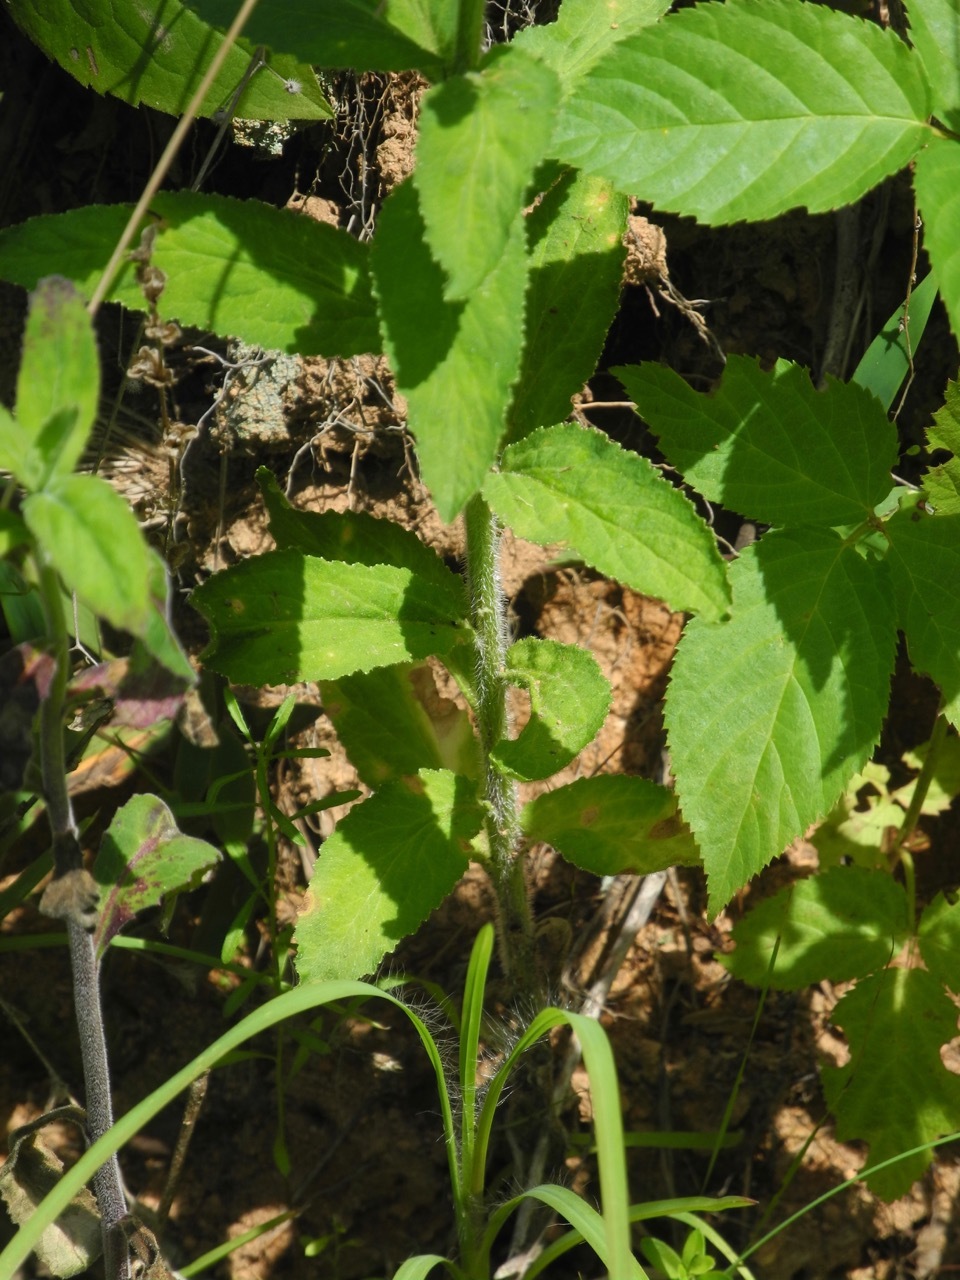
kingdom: Plantae
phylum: Tracheophyta
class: Magnoliopsida
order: Asterales
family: Campanulaceae
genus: Lobelia
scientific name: Lobelia inflata
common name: Indian tobacco
